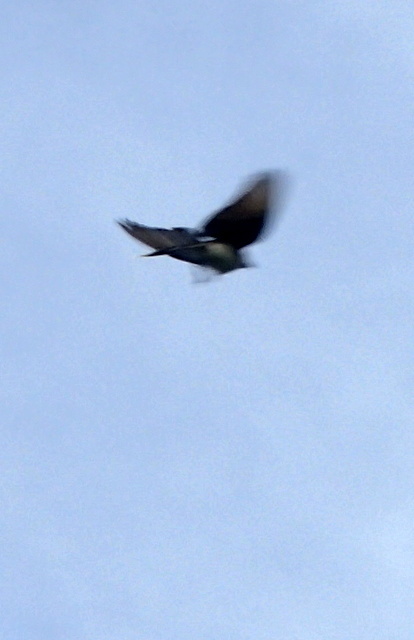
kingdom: Animalia
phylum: Chordata
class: Aves
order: Passeriformes
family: Tyrannidae
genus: Tyrannus
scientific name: Tyrannus tyrannus
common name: Eastern kingbird
